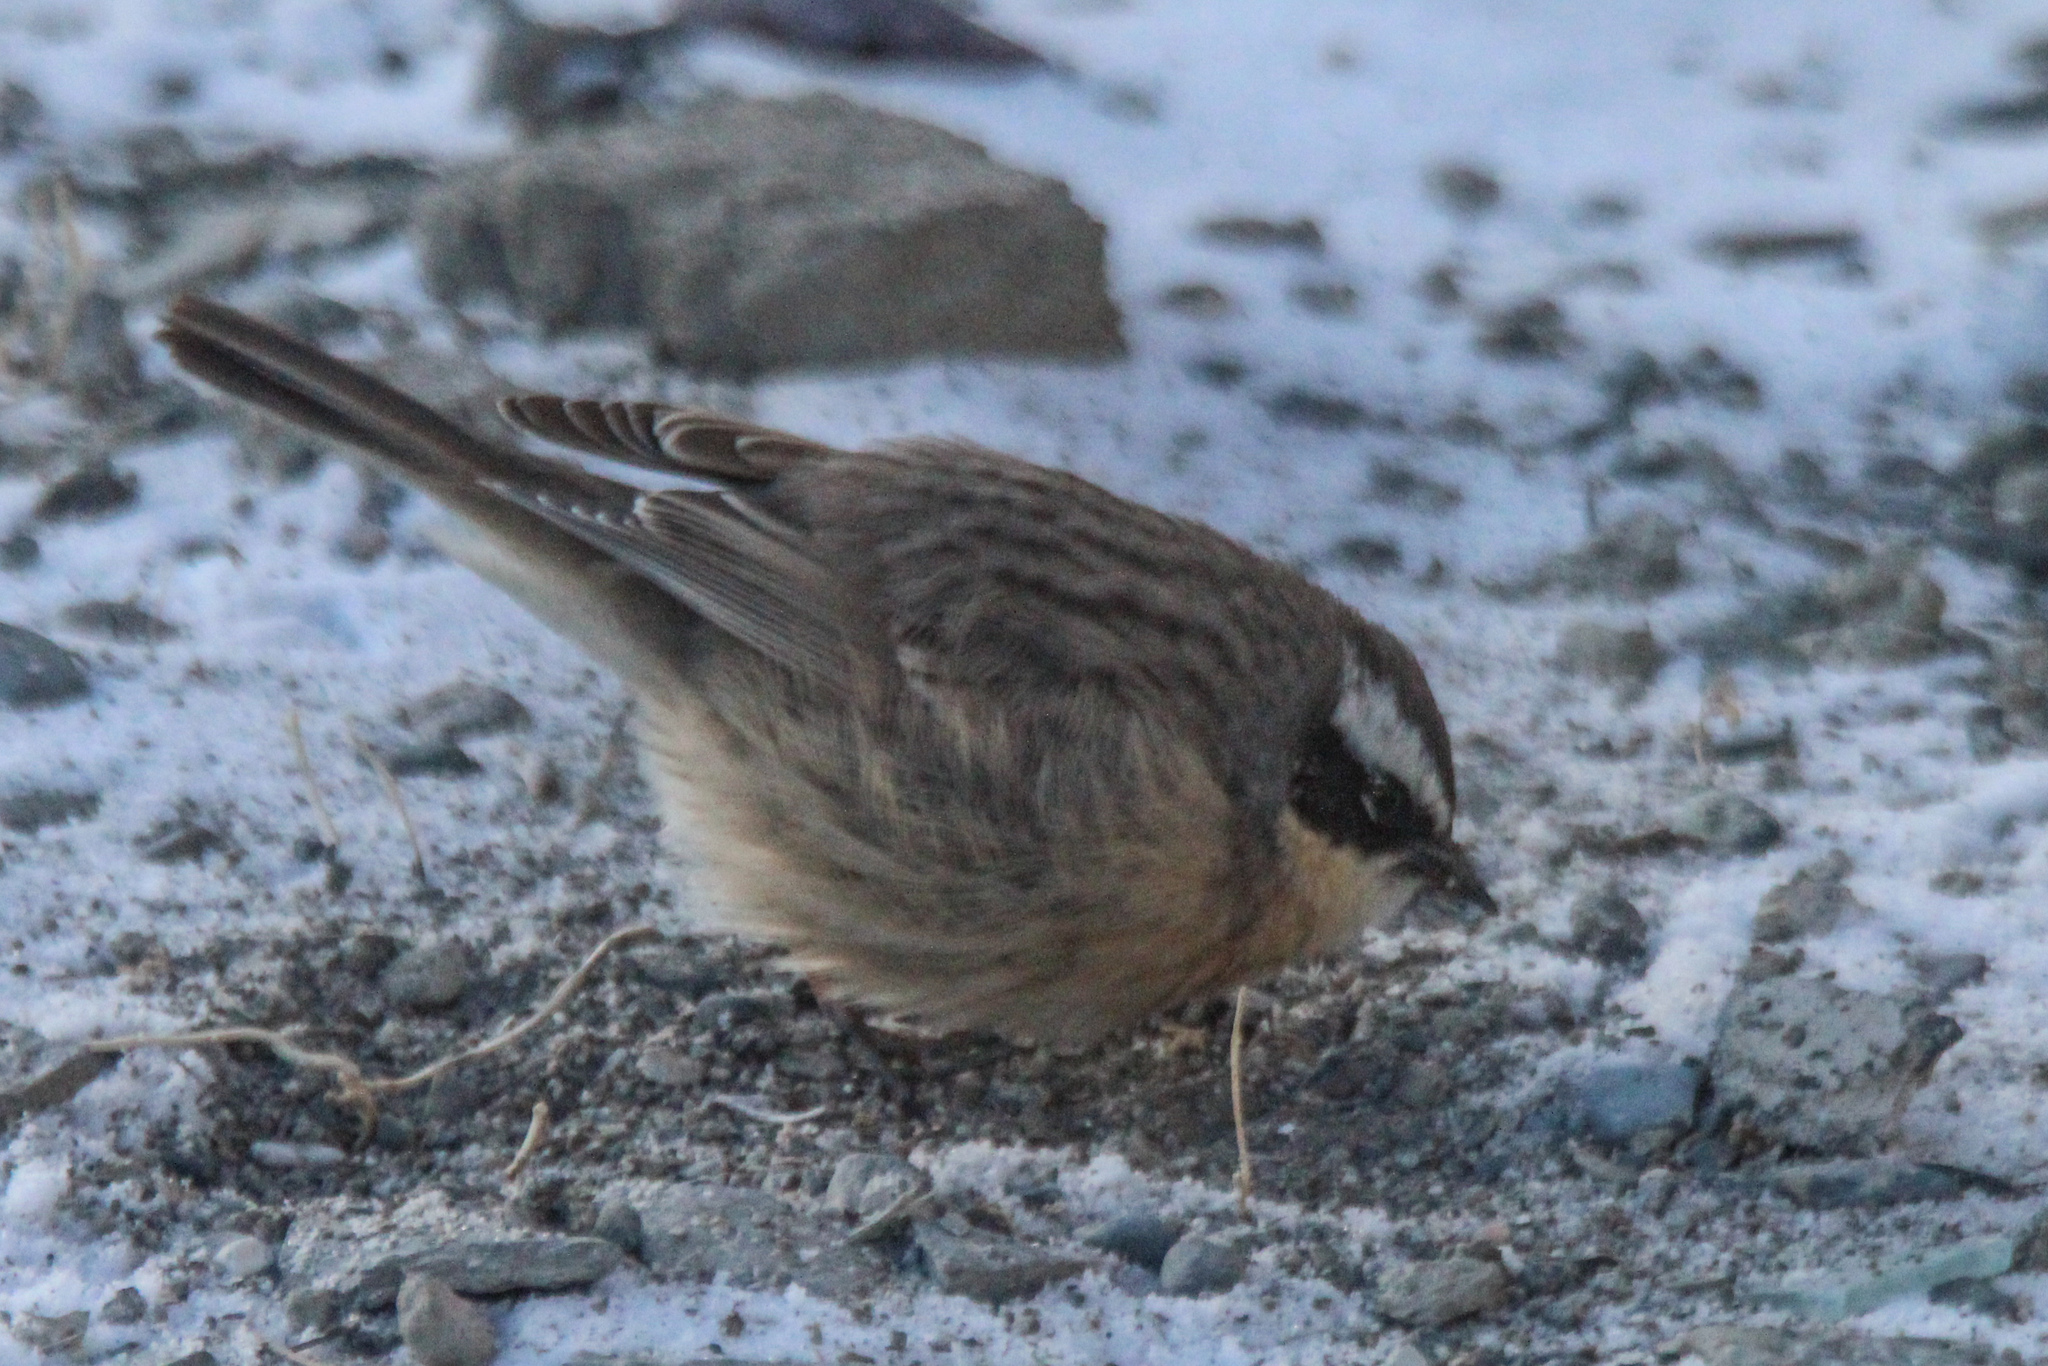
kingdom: Animalia
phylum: Chordata
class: Aves
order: Passeriformes
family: Prunellidae
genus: Prunella
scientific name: Prunella fulvescens
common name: Brown accentor
